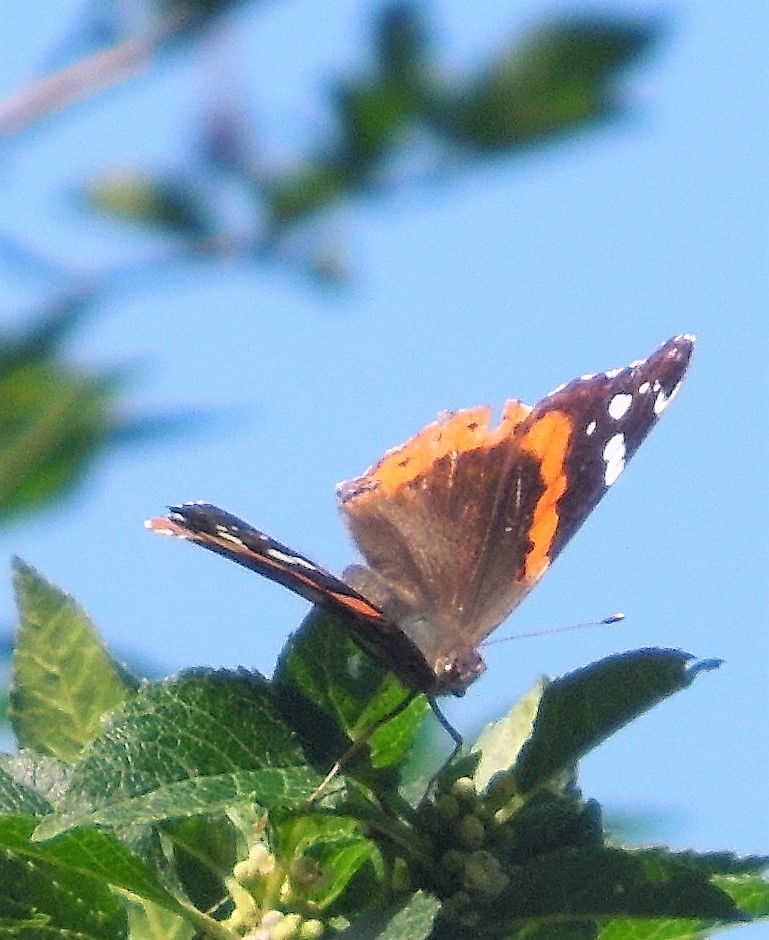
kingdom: Animalia
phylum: Arthropoda
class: Insecta
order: Lepidoptera
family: Nymphalidae
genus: Vanessa
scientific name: Vanessa atalanta
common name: Red admiral
